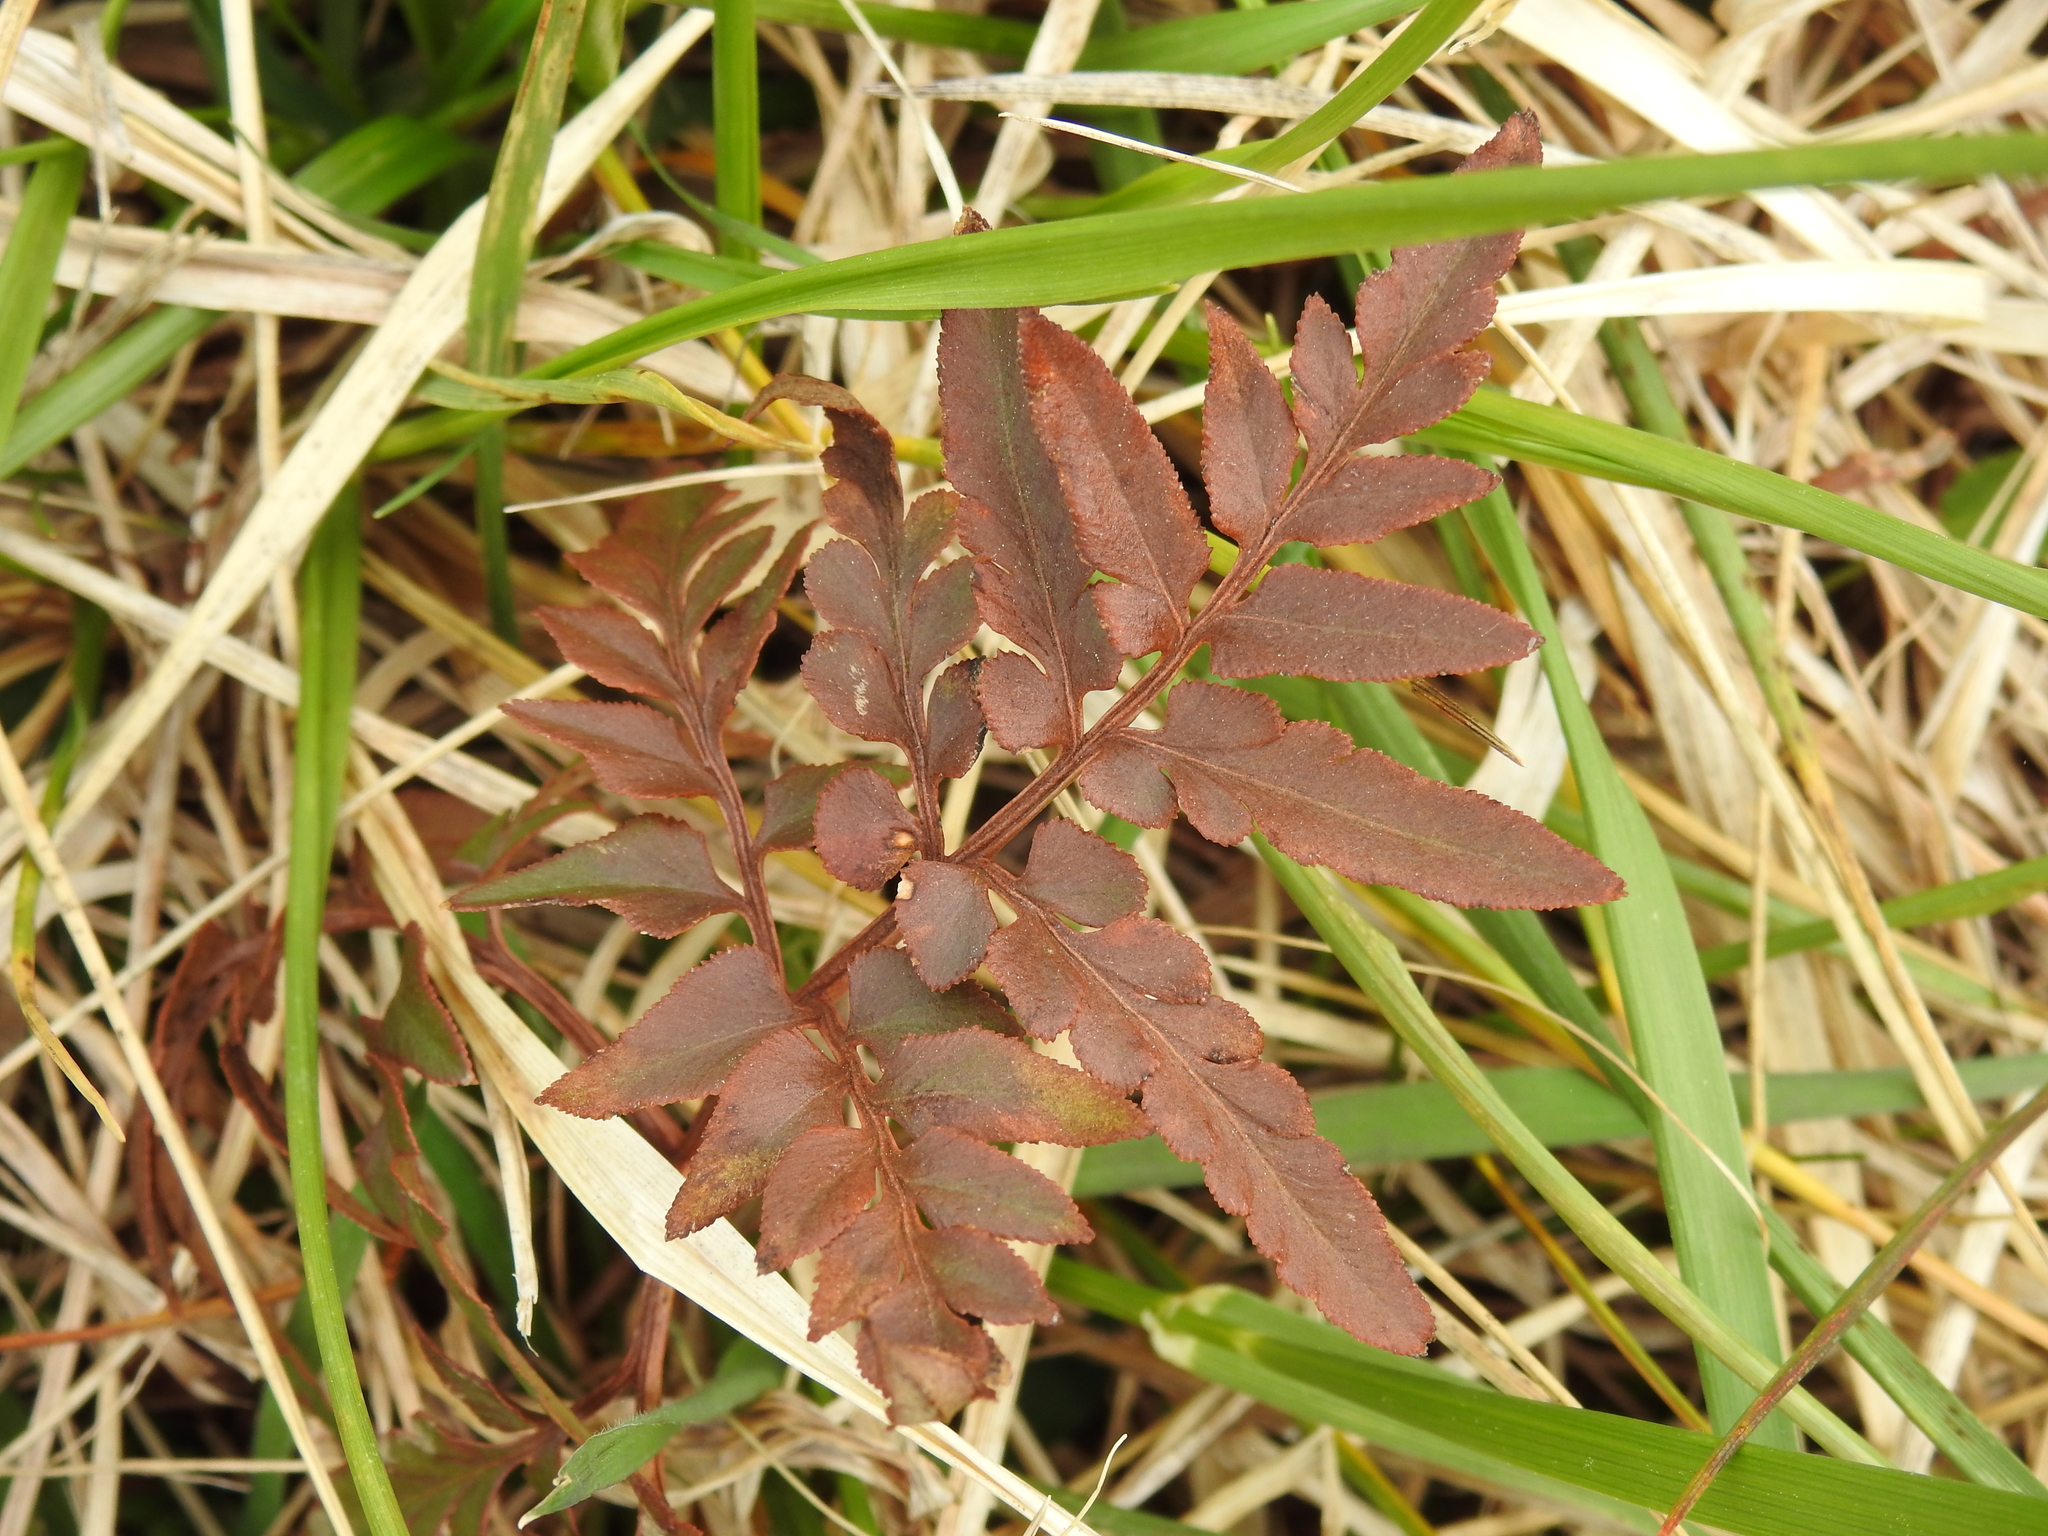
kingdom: Plantae
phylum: Tracheophyta
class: Polypodiopsida
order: Ophioglossales
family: Ophioglossaceae
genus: Sceptridium
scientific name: Sceptridium dissectum
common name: Cut-leaved grapefern
